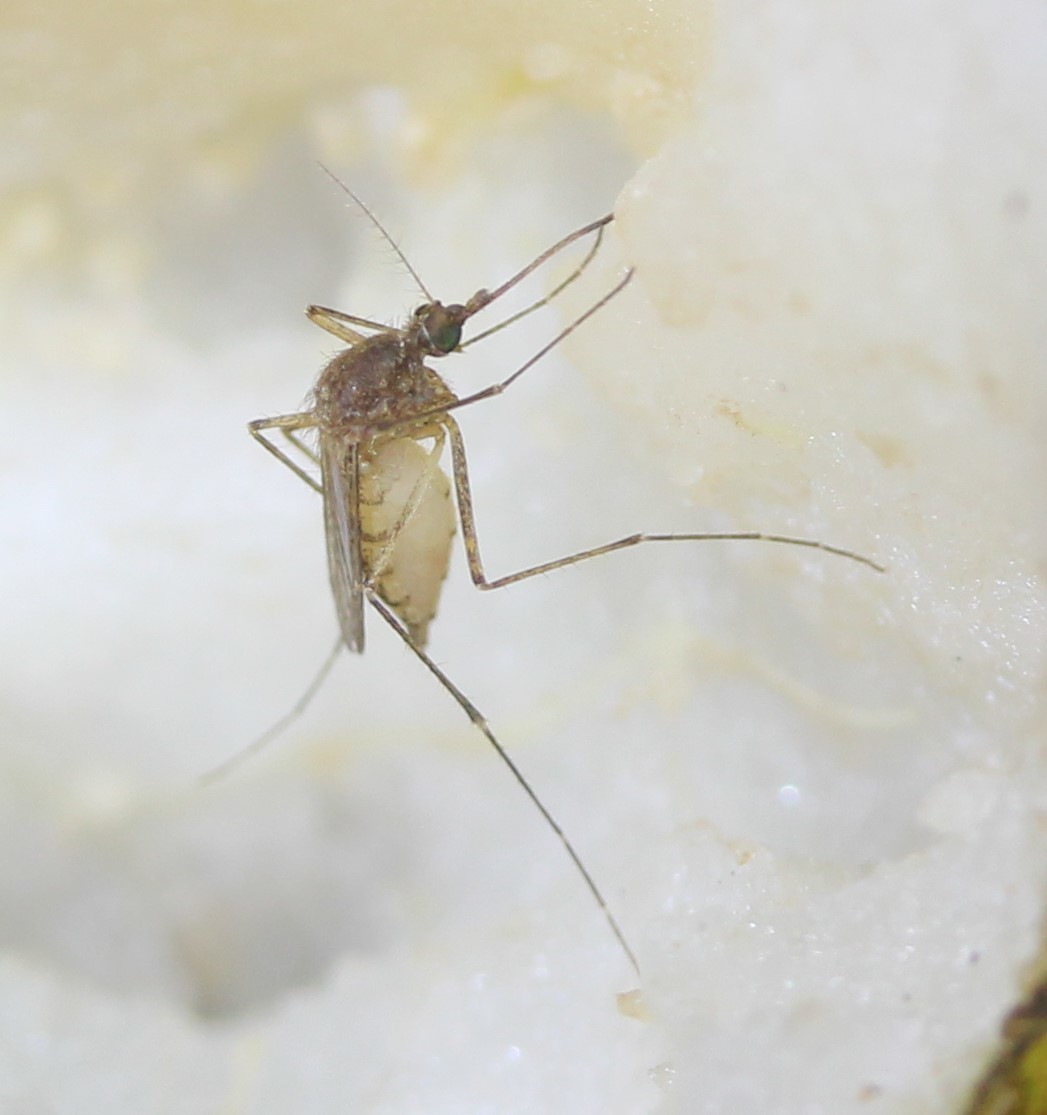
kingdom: Animalia
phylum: Arthropoda
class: Insecta
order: Diptera
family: Culicidae
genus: Aedes
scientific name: Aedes vexans
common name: Inland floodwater mosquito
